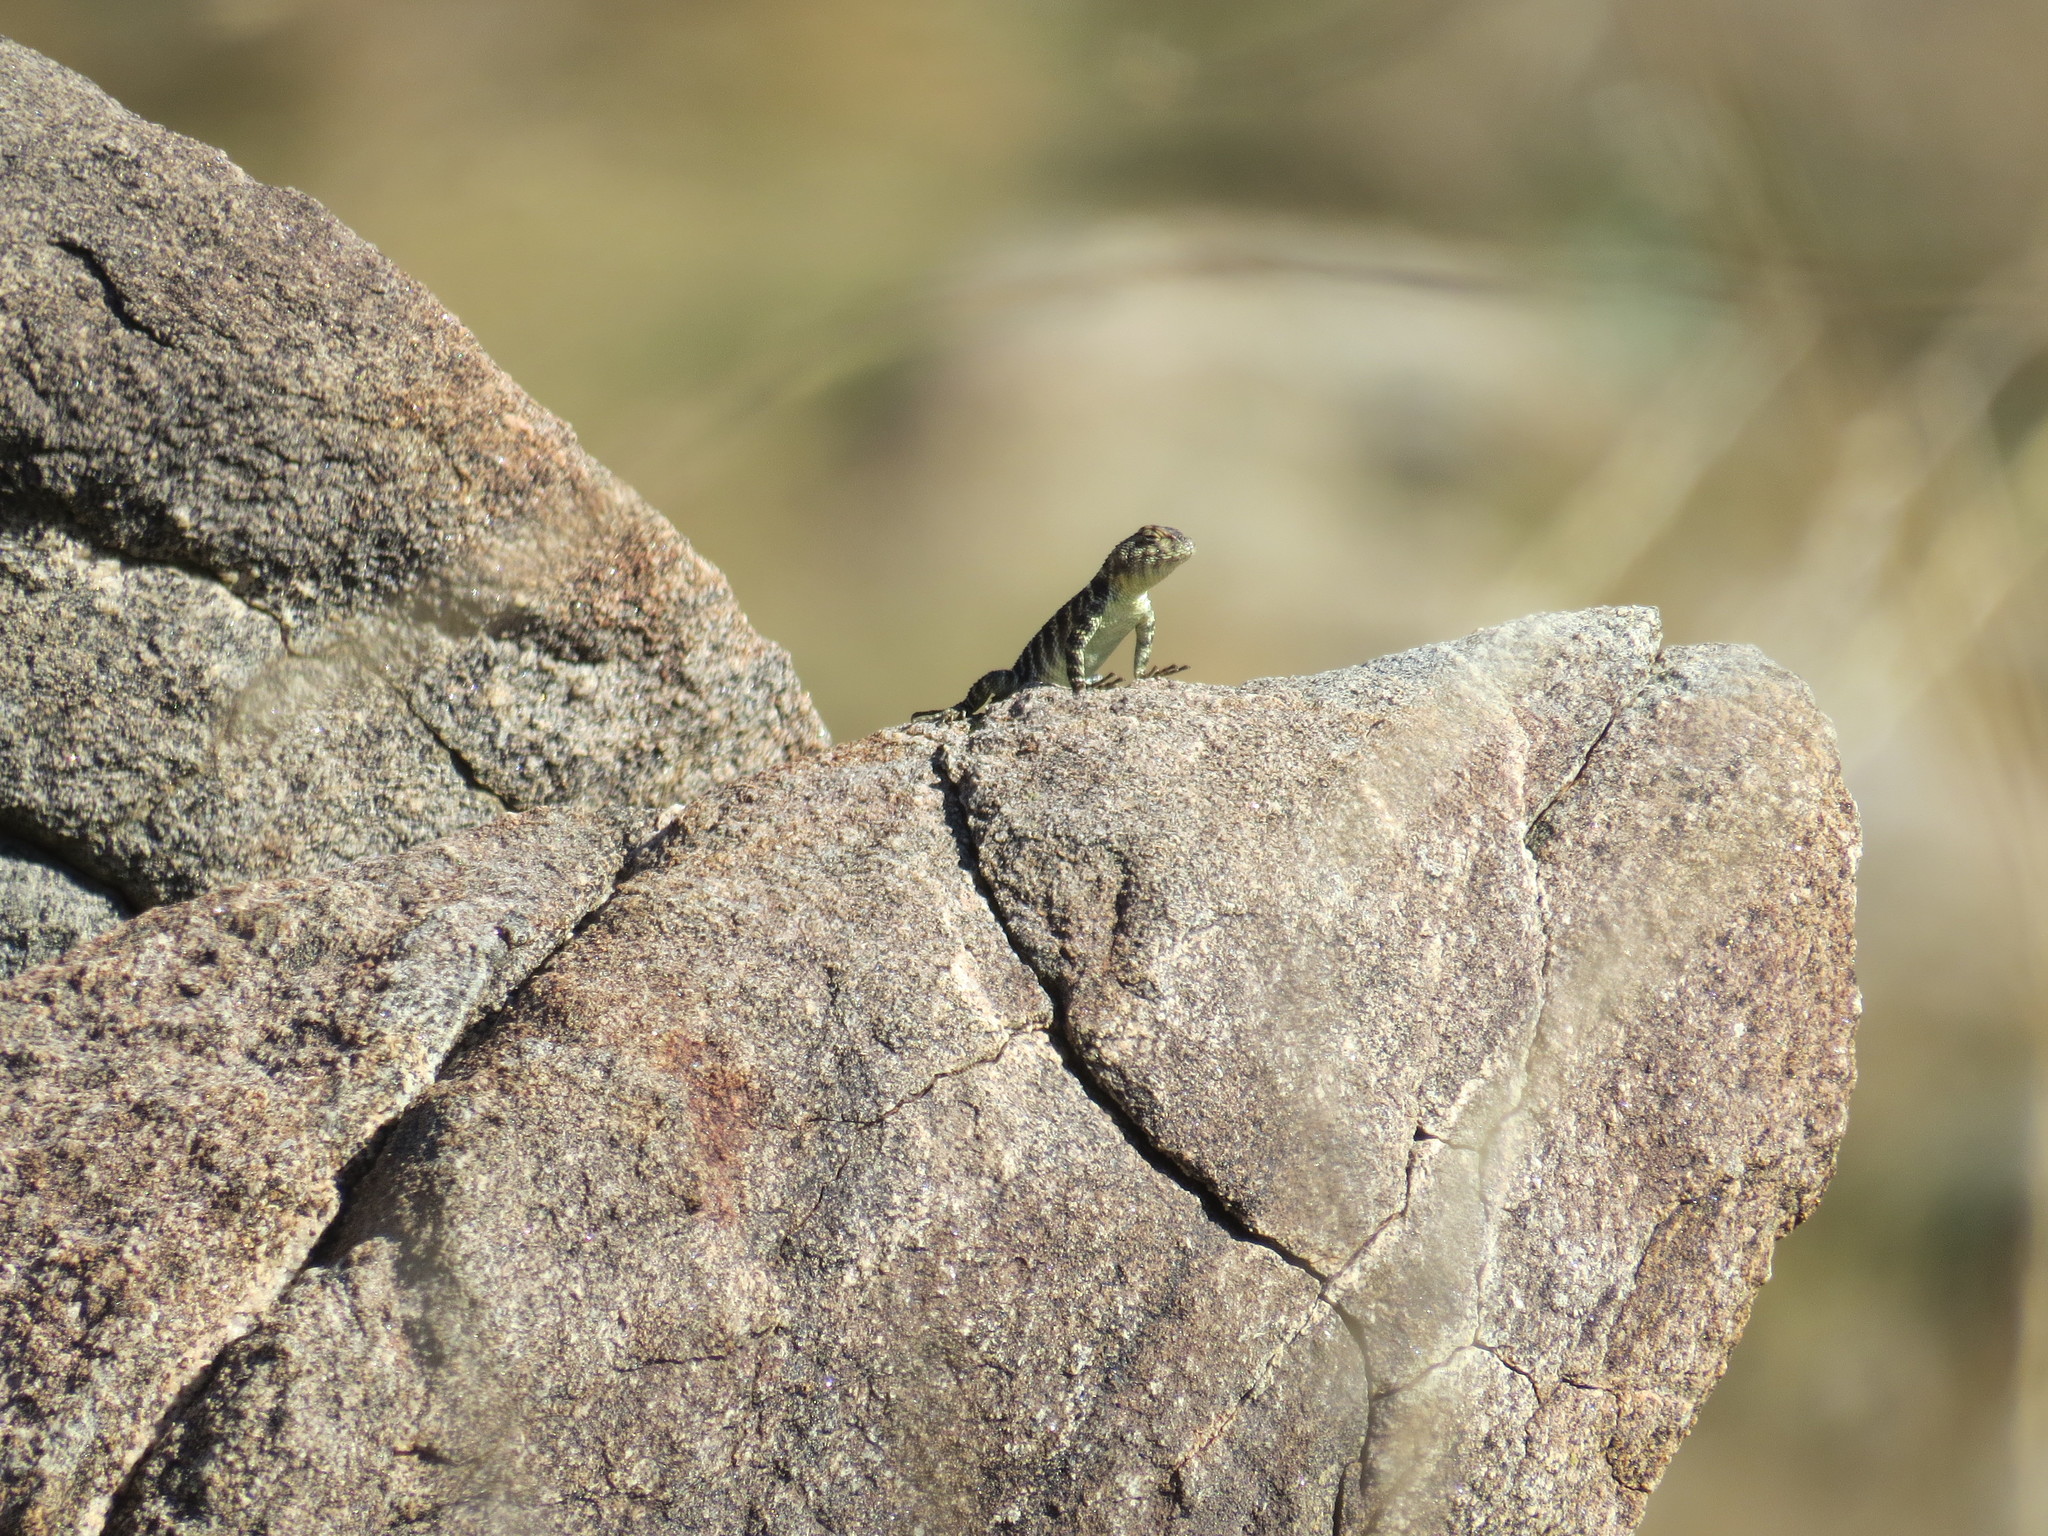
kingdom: Animalia
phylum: Chordata
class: Squamata
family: Phrynosomatidae
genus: Sceloporus
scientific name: Sceloporus orcutti
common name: Granite spiny lizard
